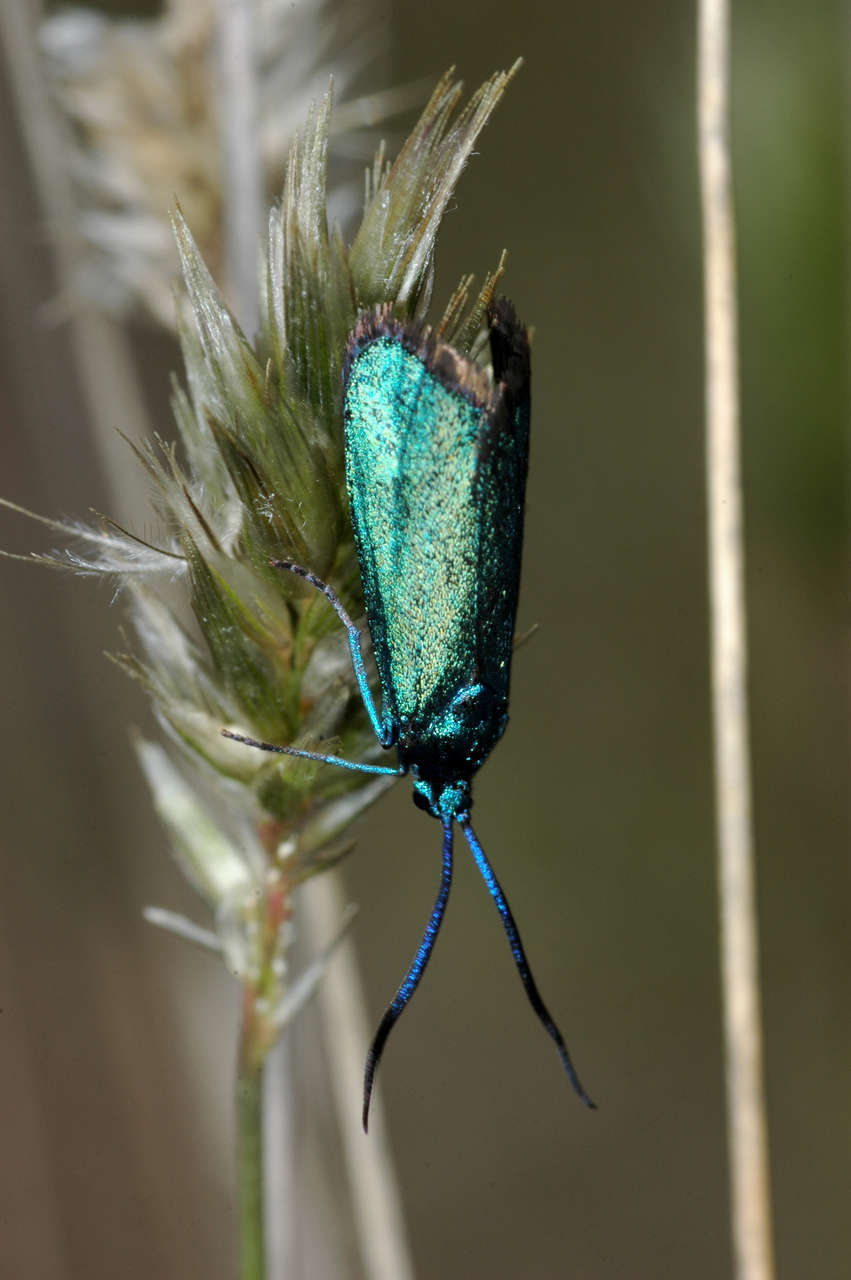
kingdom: Animalia
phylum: Arthropoda
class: Insecta
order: Lepidoptera
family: Zygaenidae
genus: Pollanisus
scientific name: Pollanisus viridipulverulenta
